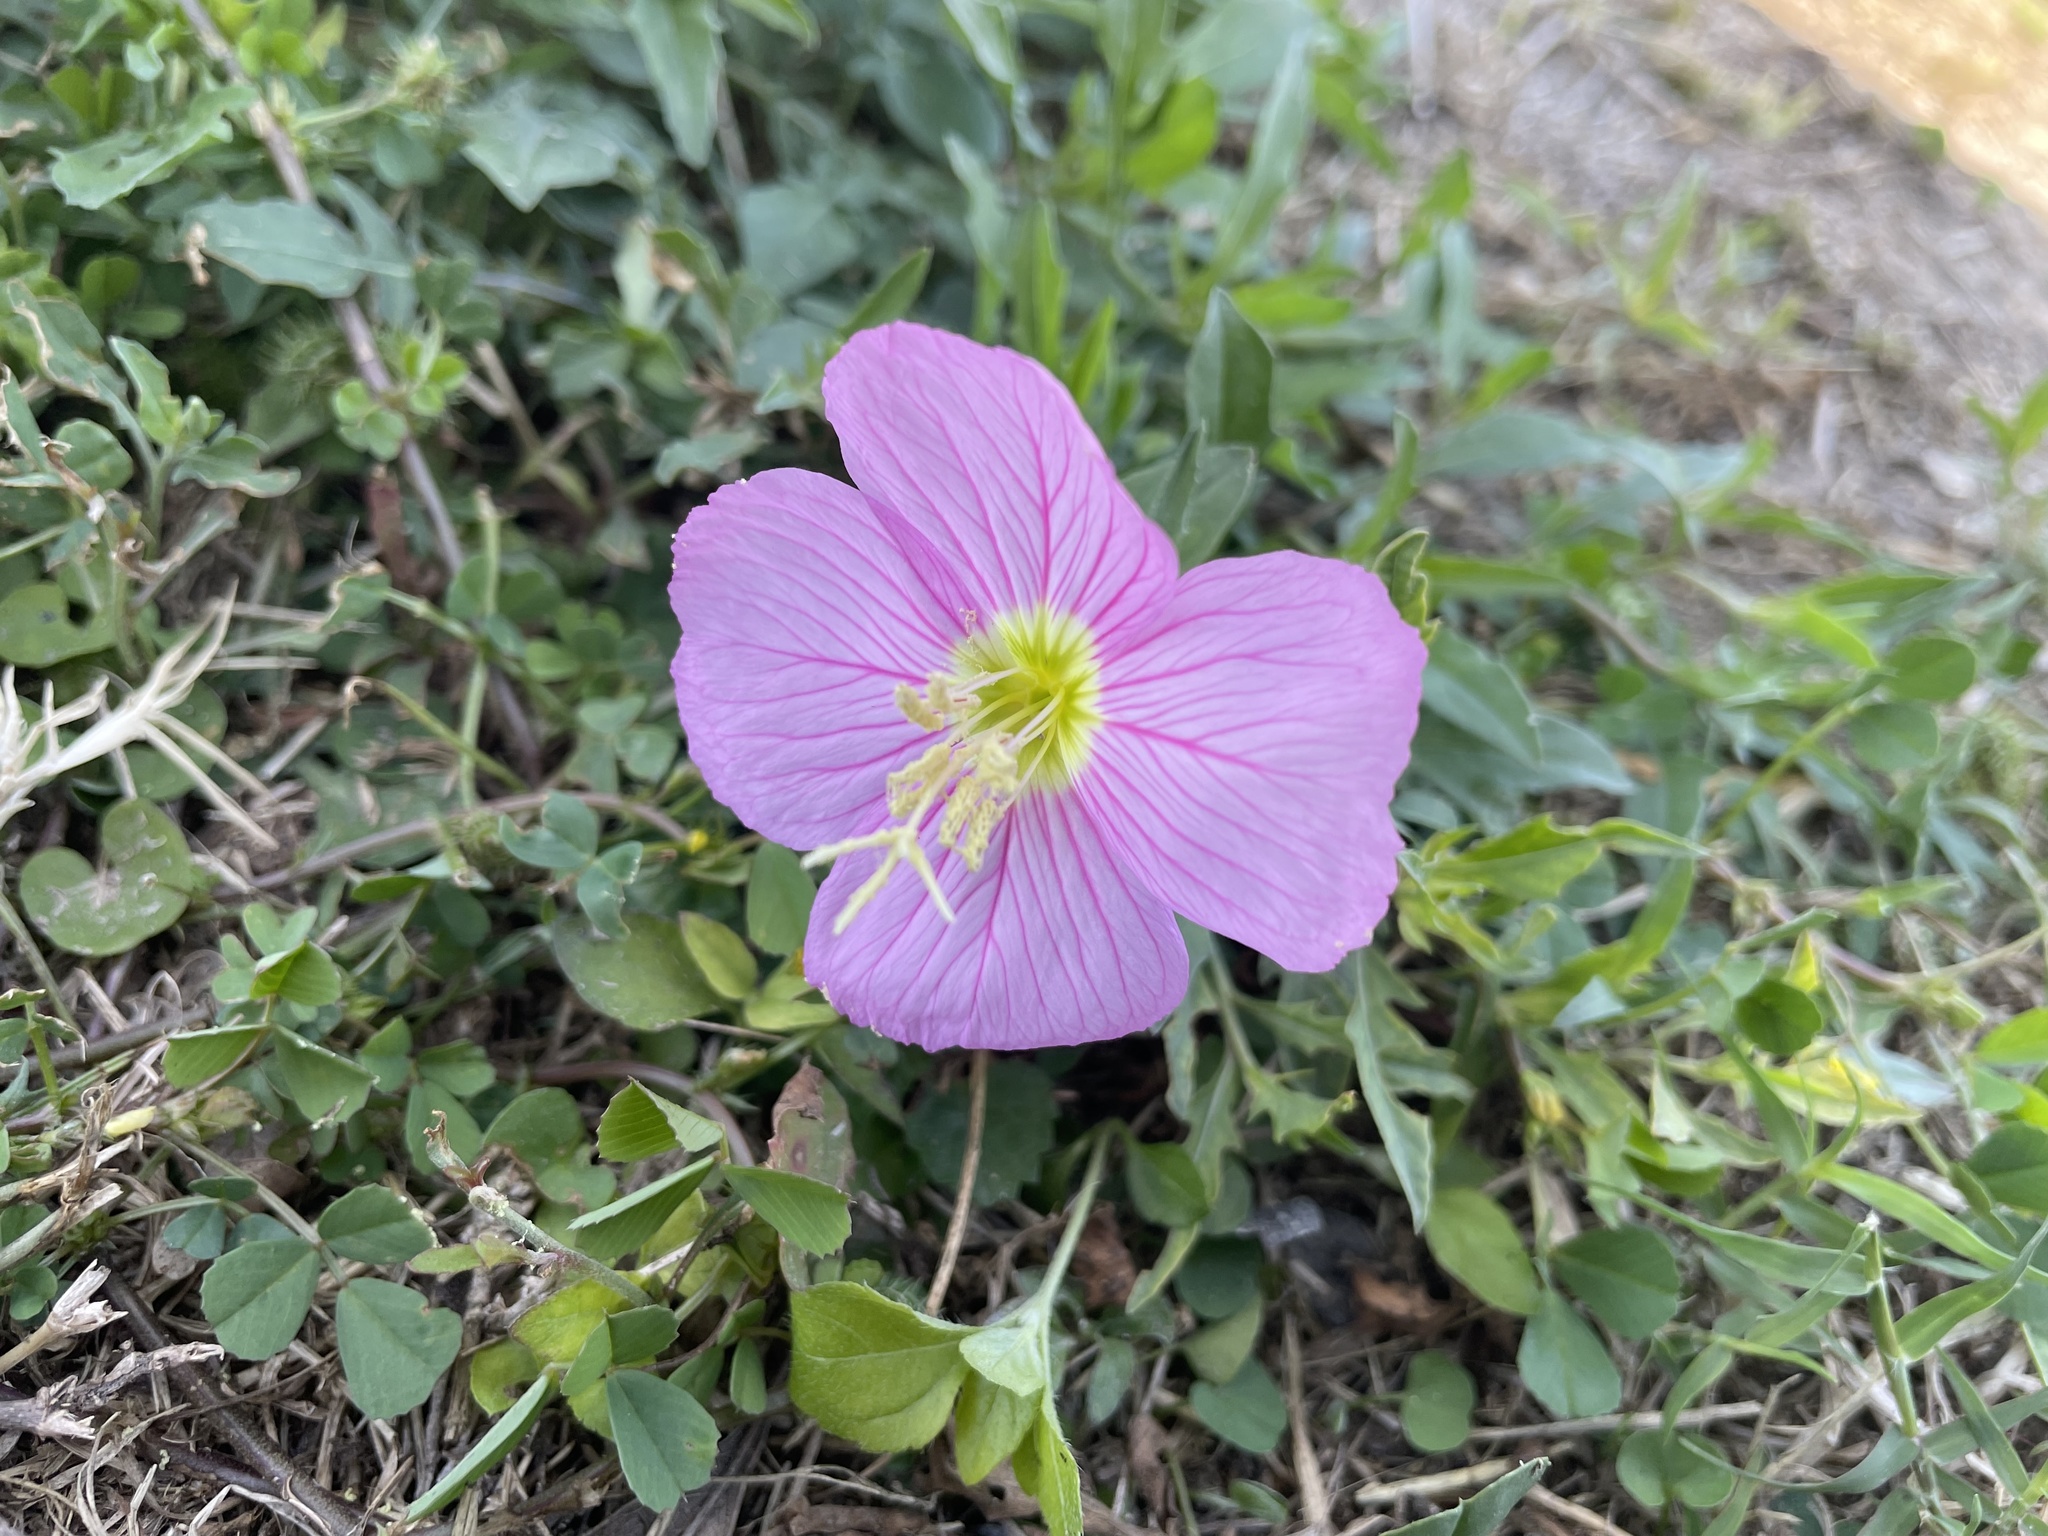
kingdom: Plantae
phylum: Tracheophyta
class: Magnoliopsida
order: Myrtales
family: Onagraceae
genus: Oenothera
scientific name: Oenothera speciosa
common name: White evening-primrose
